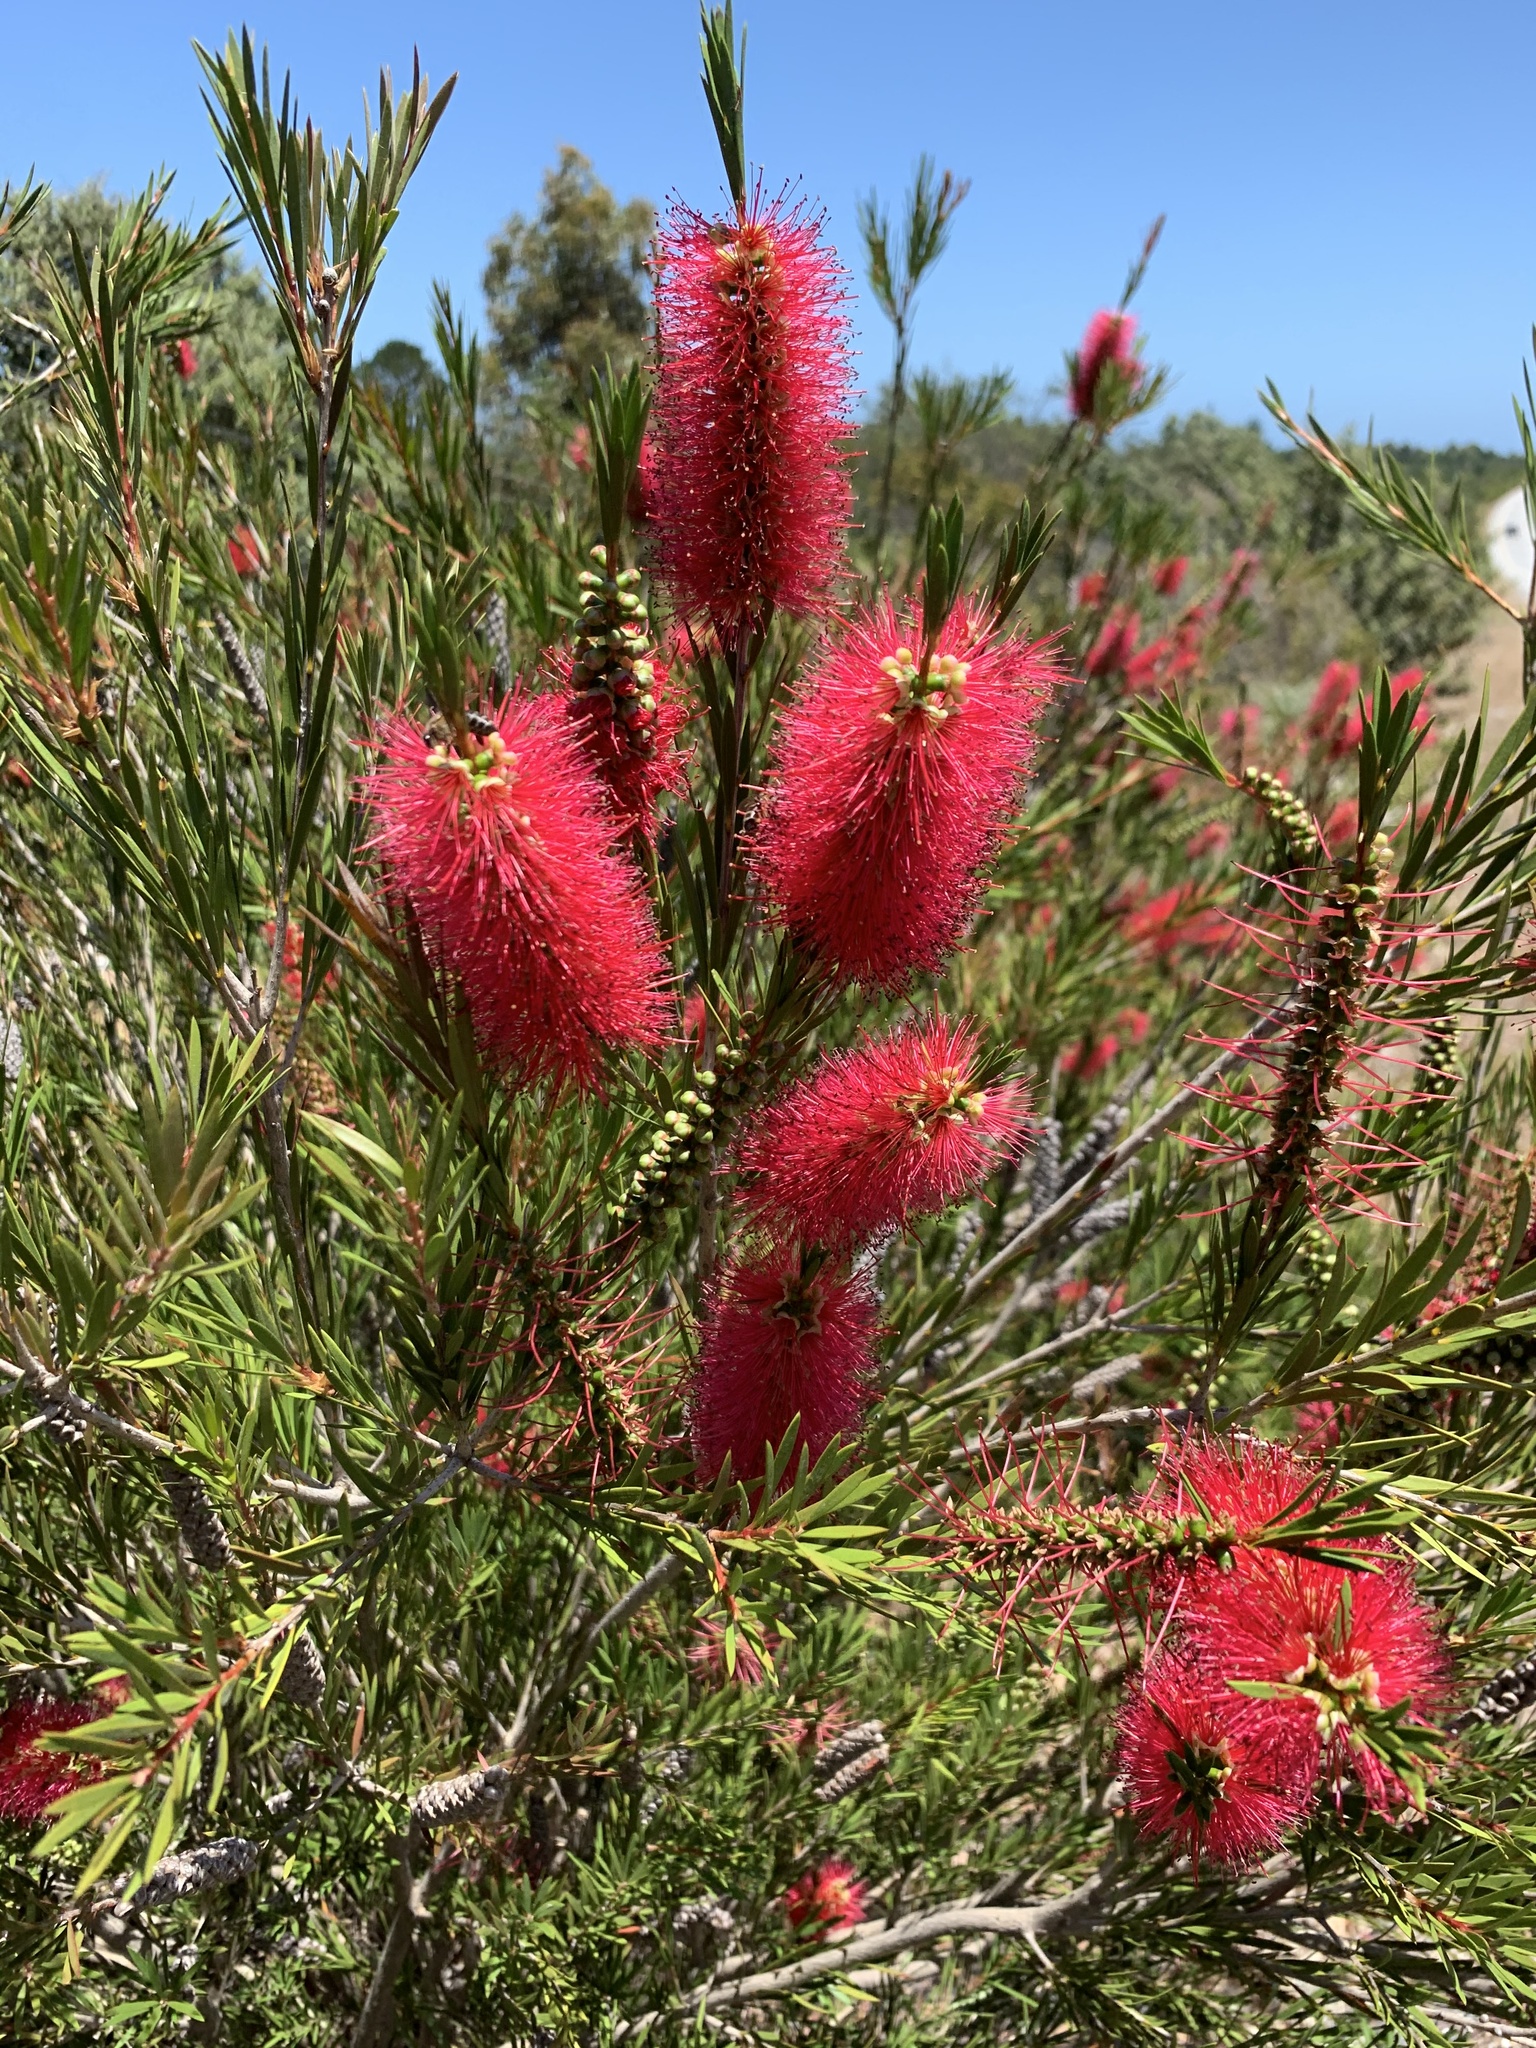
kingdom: Plantae
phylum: Tracheophyta
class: Magnoliopsida
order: Myrtales
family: Myrtaceae
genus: Callistemon
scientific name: Callistemon subulatus
